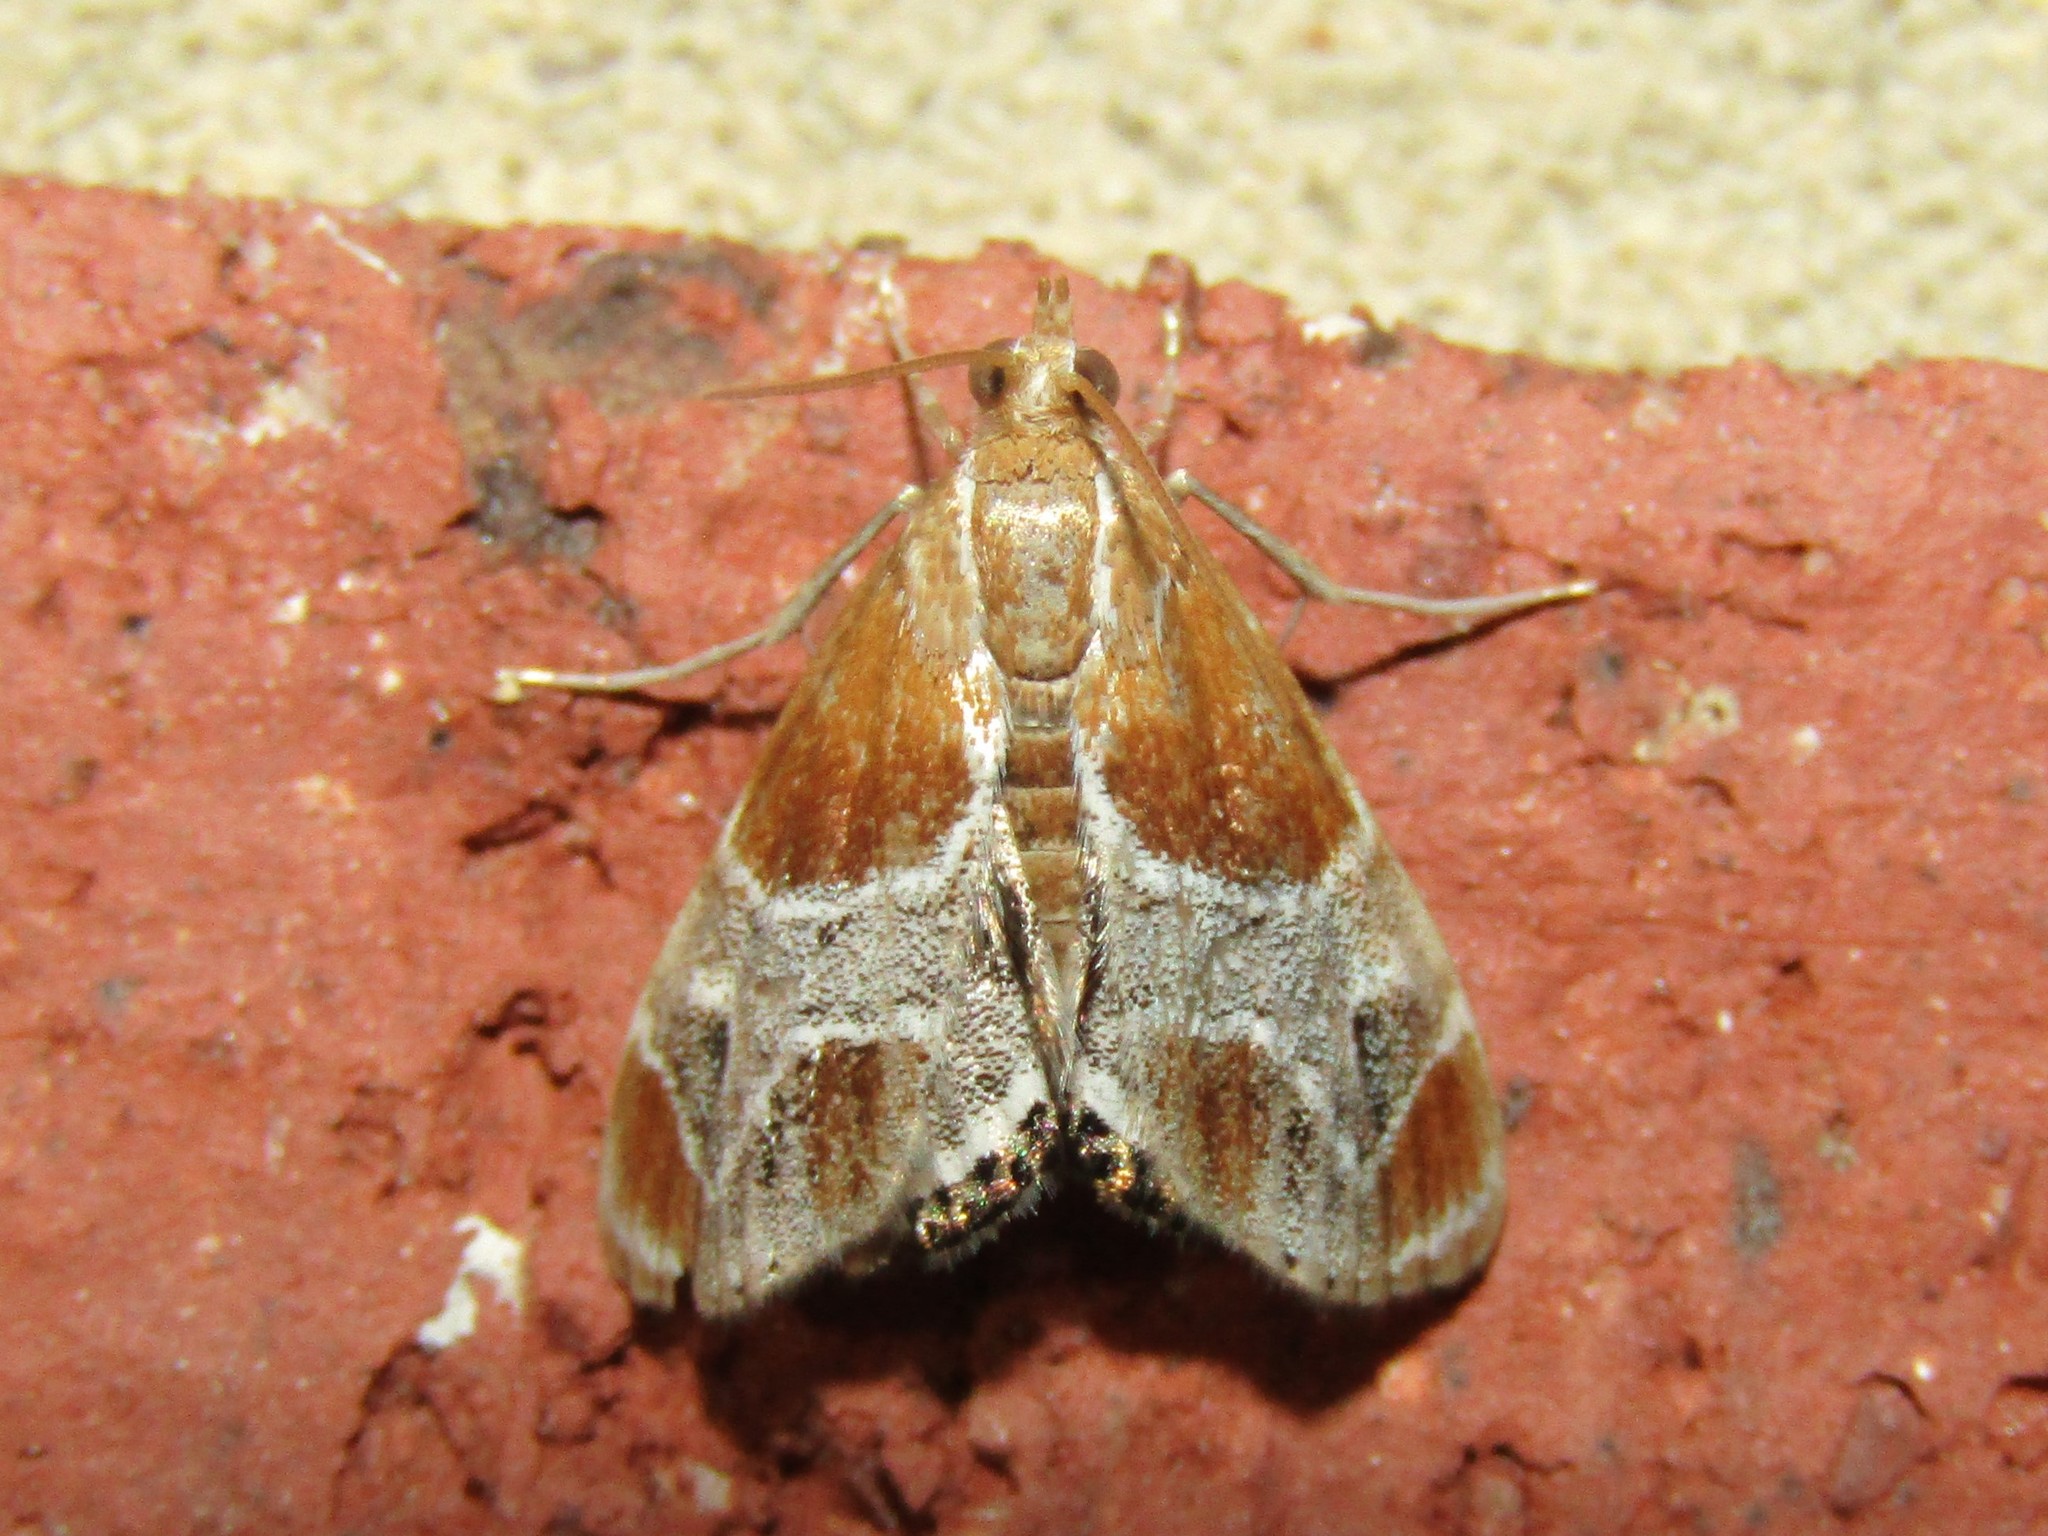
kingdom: Animalia
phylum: Arthropoda
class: Insecta
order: Lepidoptera
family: Crambidae
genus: Chalcoela
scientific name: Chalcoela pegasalis
